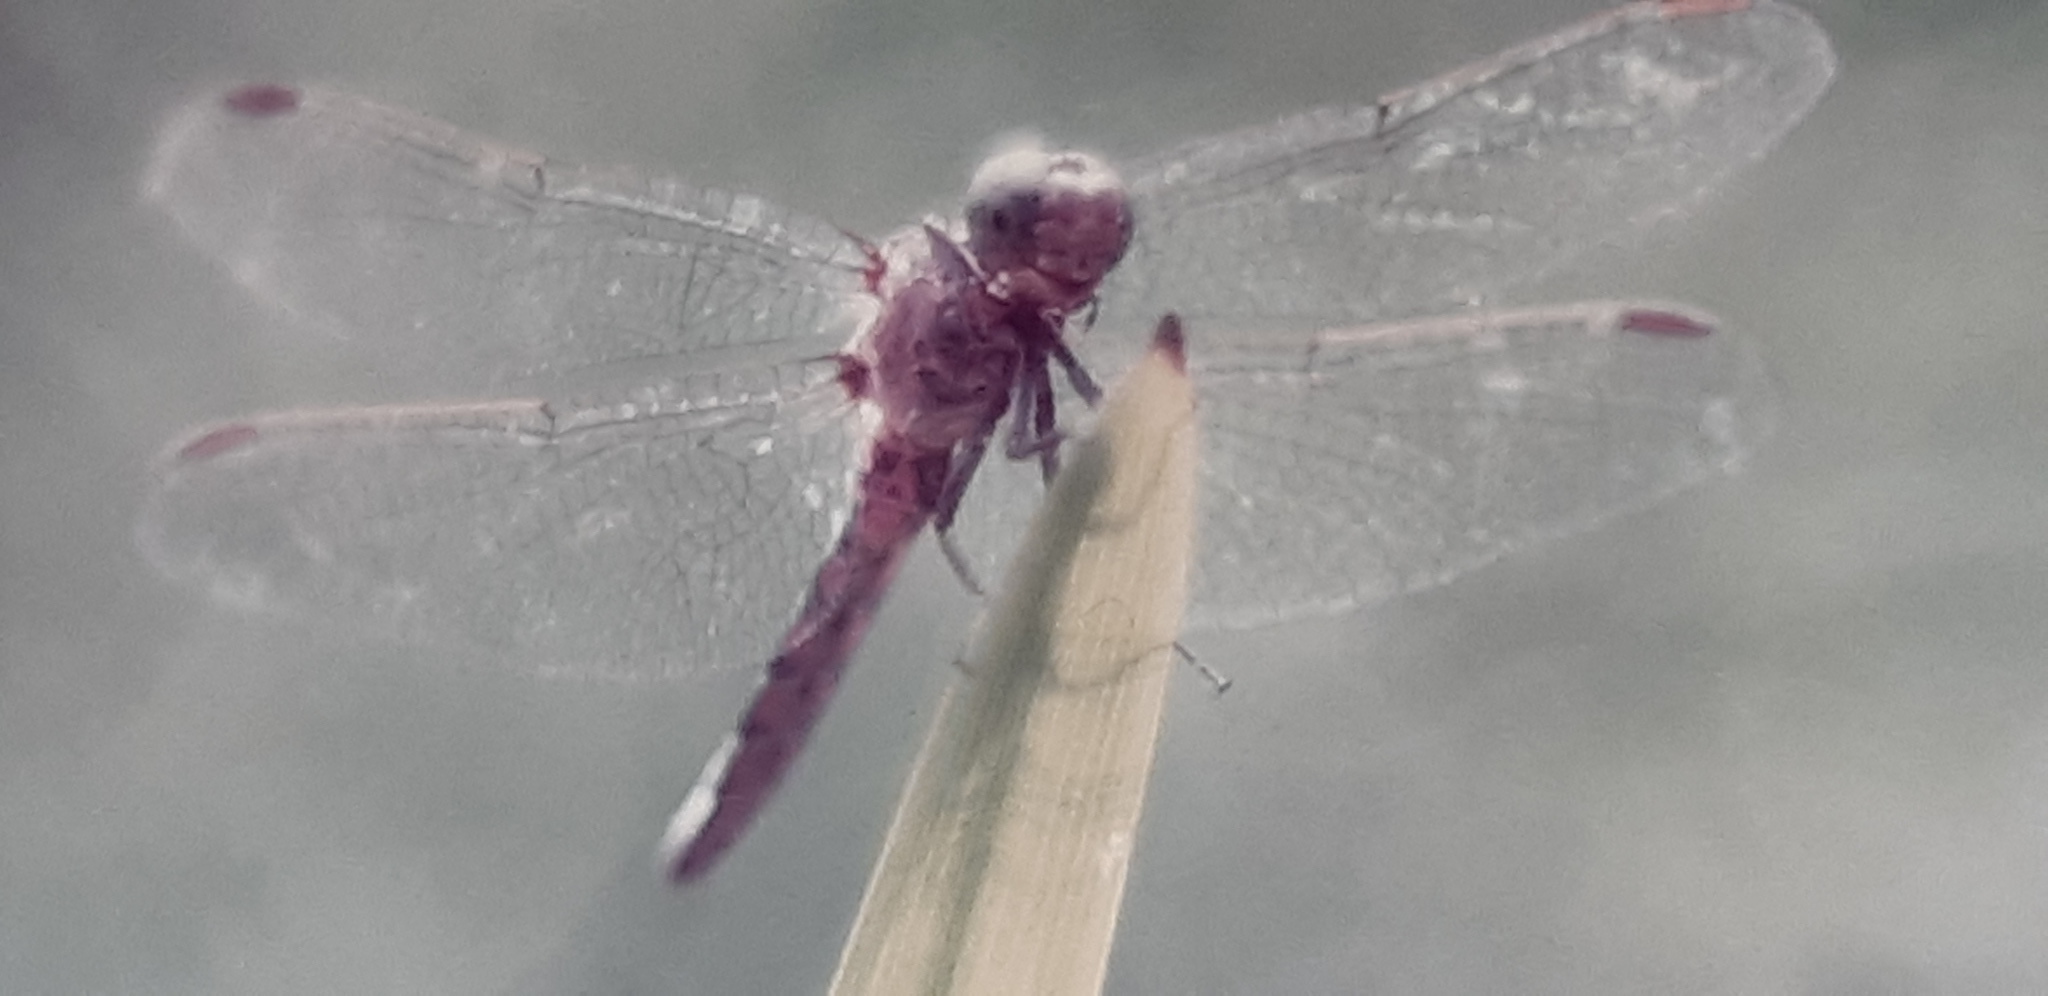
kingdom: Animalia
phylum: Arthropoda
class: Insecta
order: Odonata
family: Libellulidae
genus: Orthetrum
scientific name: Orthetrum coerulescens
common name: Keeled skimmer
